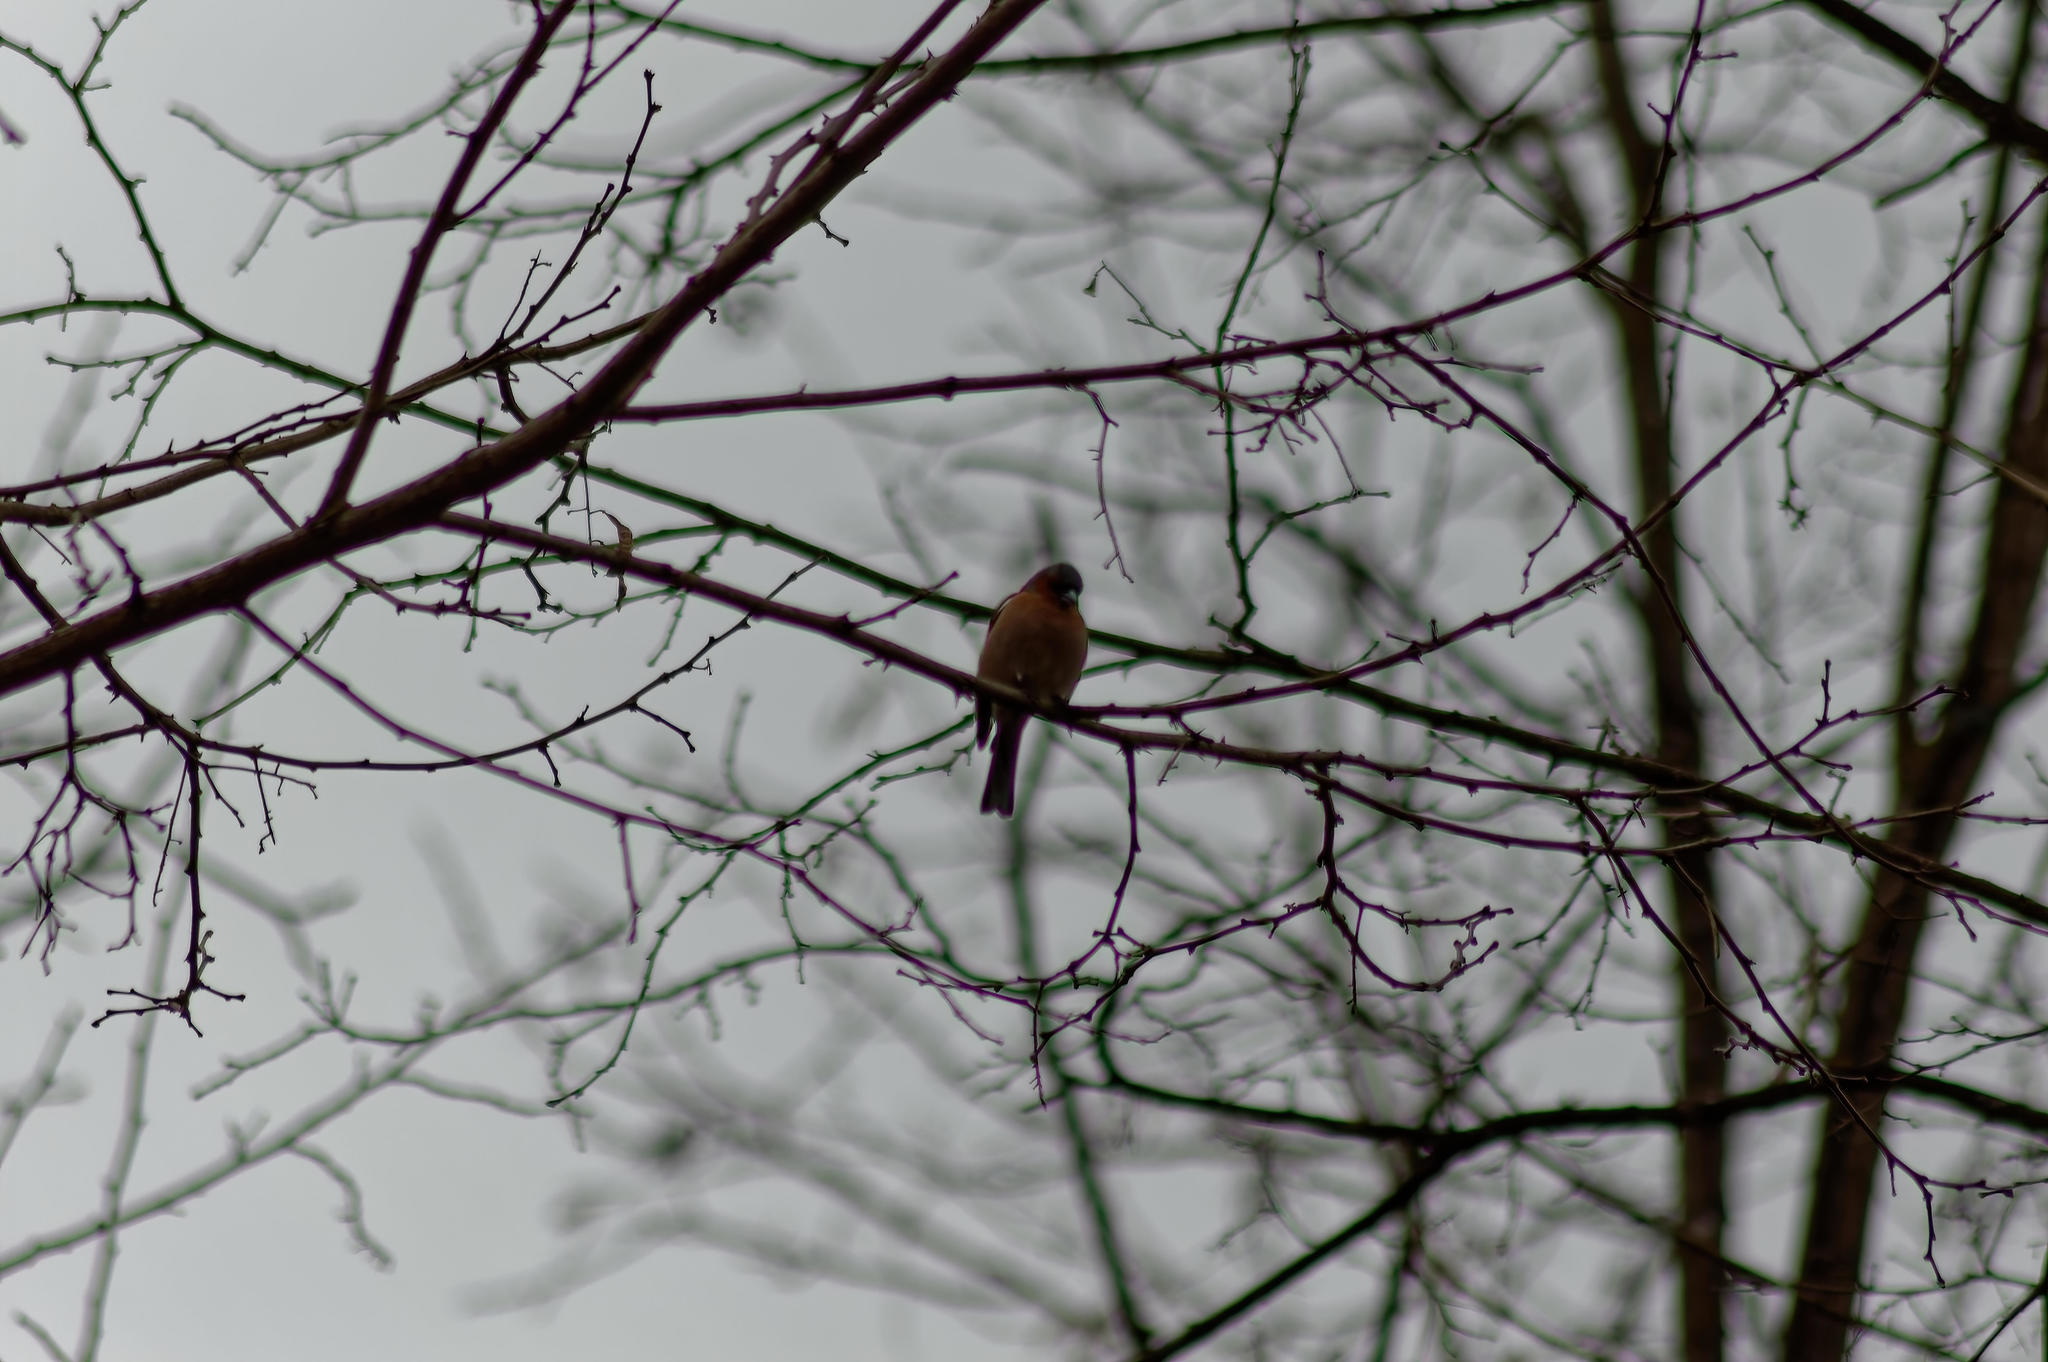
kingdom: Animalia
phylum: Chordata
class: Aves
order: Passeriformes
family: Fringillidae
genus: Fringilla
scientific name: Fringilla coelebs
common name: Common chaffinch
